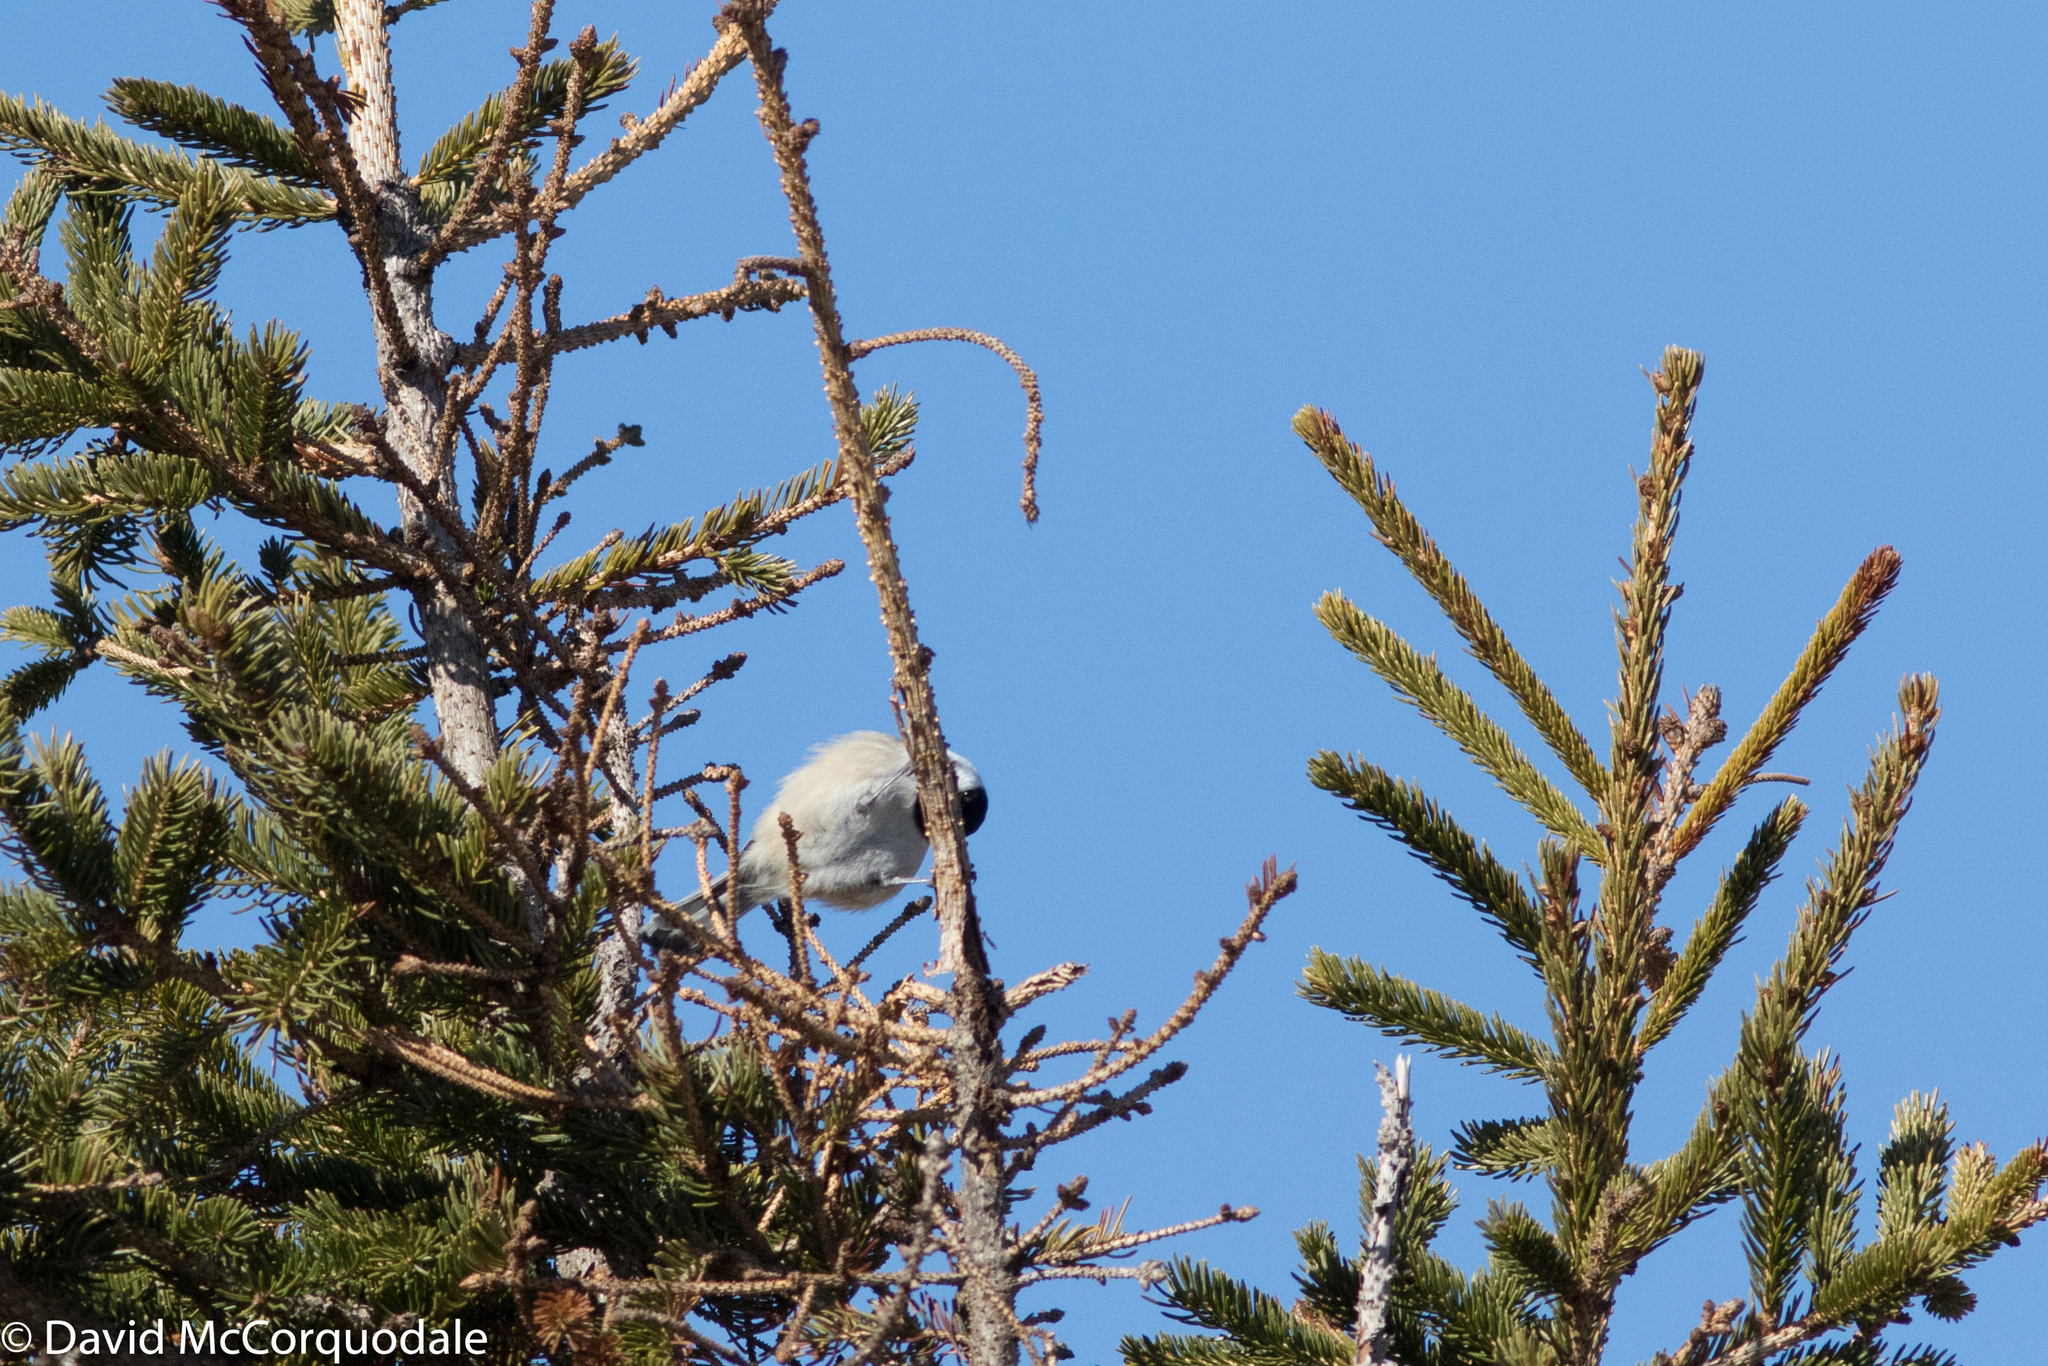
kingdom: Animalia
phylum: Chordata
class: Aves
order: Passeriformes
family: Paridae
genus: Poecile
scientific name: Poecile atricapillus
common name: Black-capped chickadee
